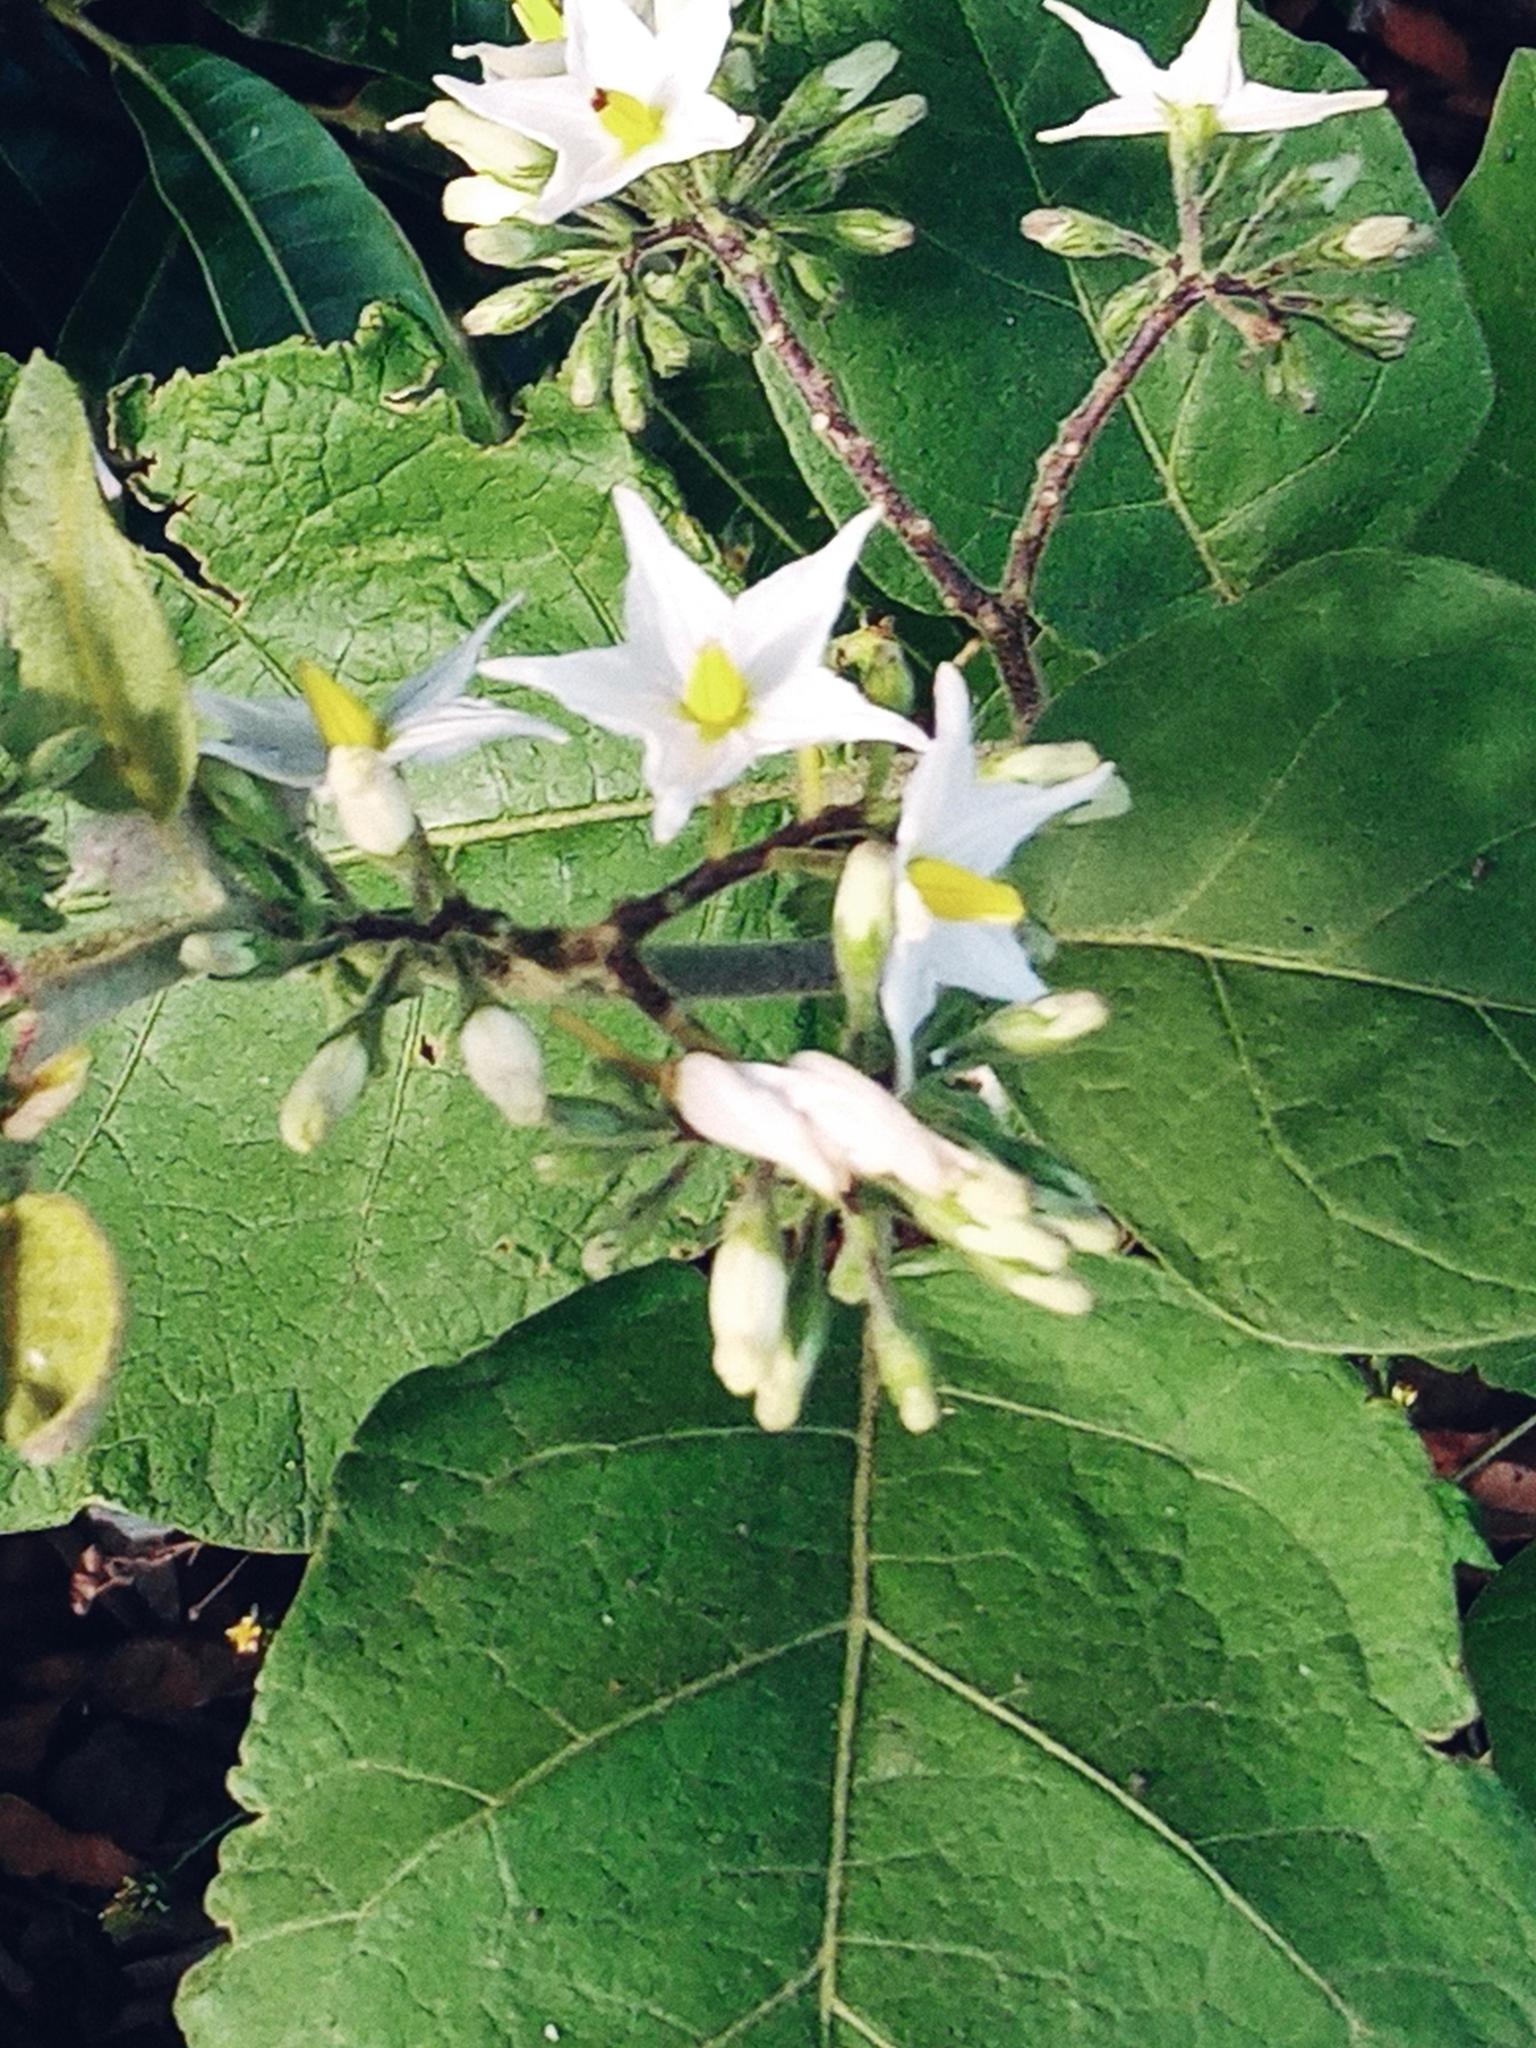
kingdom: Plantae
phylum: Tracheophyta
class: Magnoliopsida
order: Solanales
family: Solanaceae
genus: Solanum
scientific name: Solanum torvum
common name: Turkey berry
